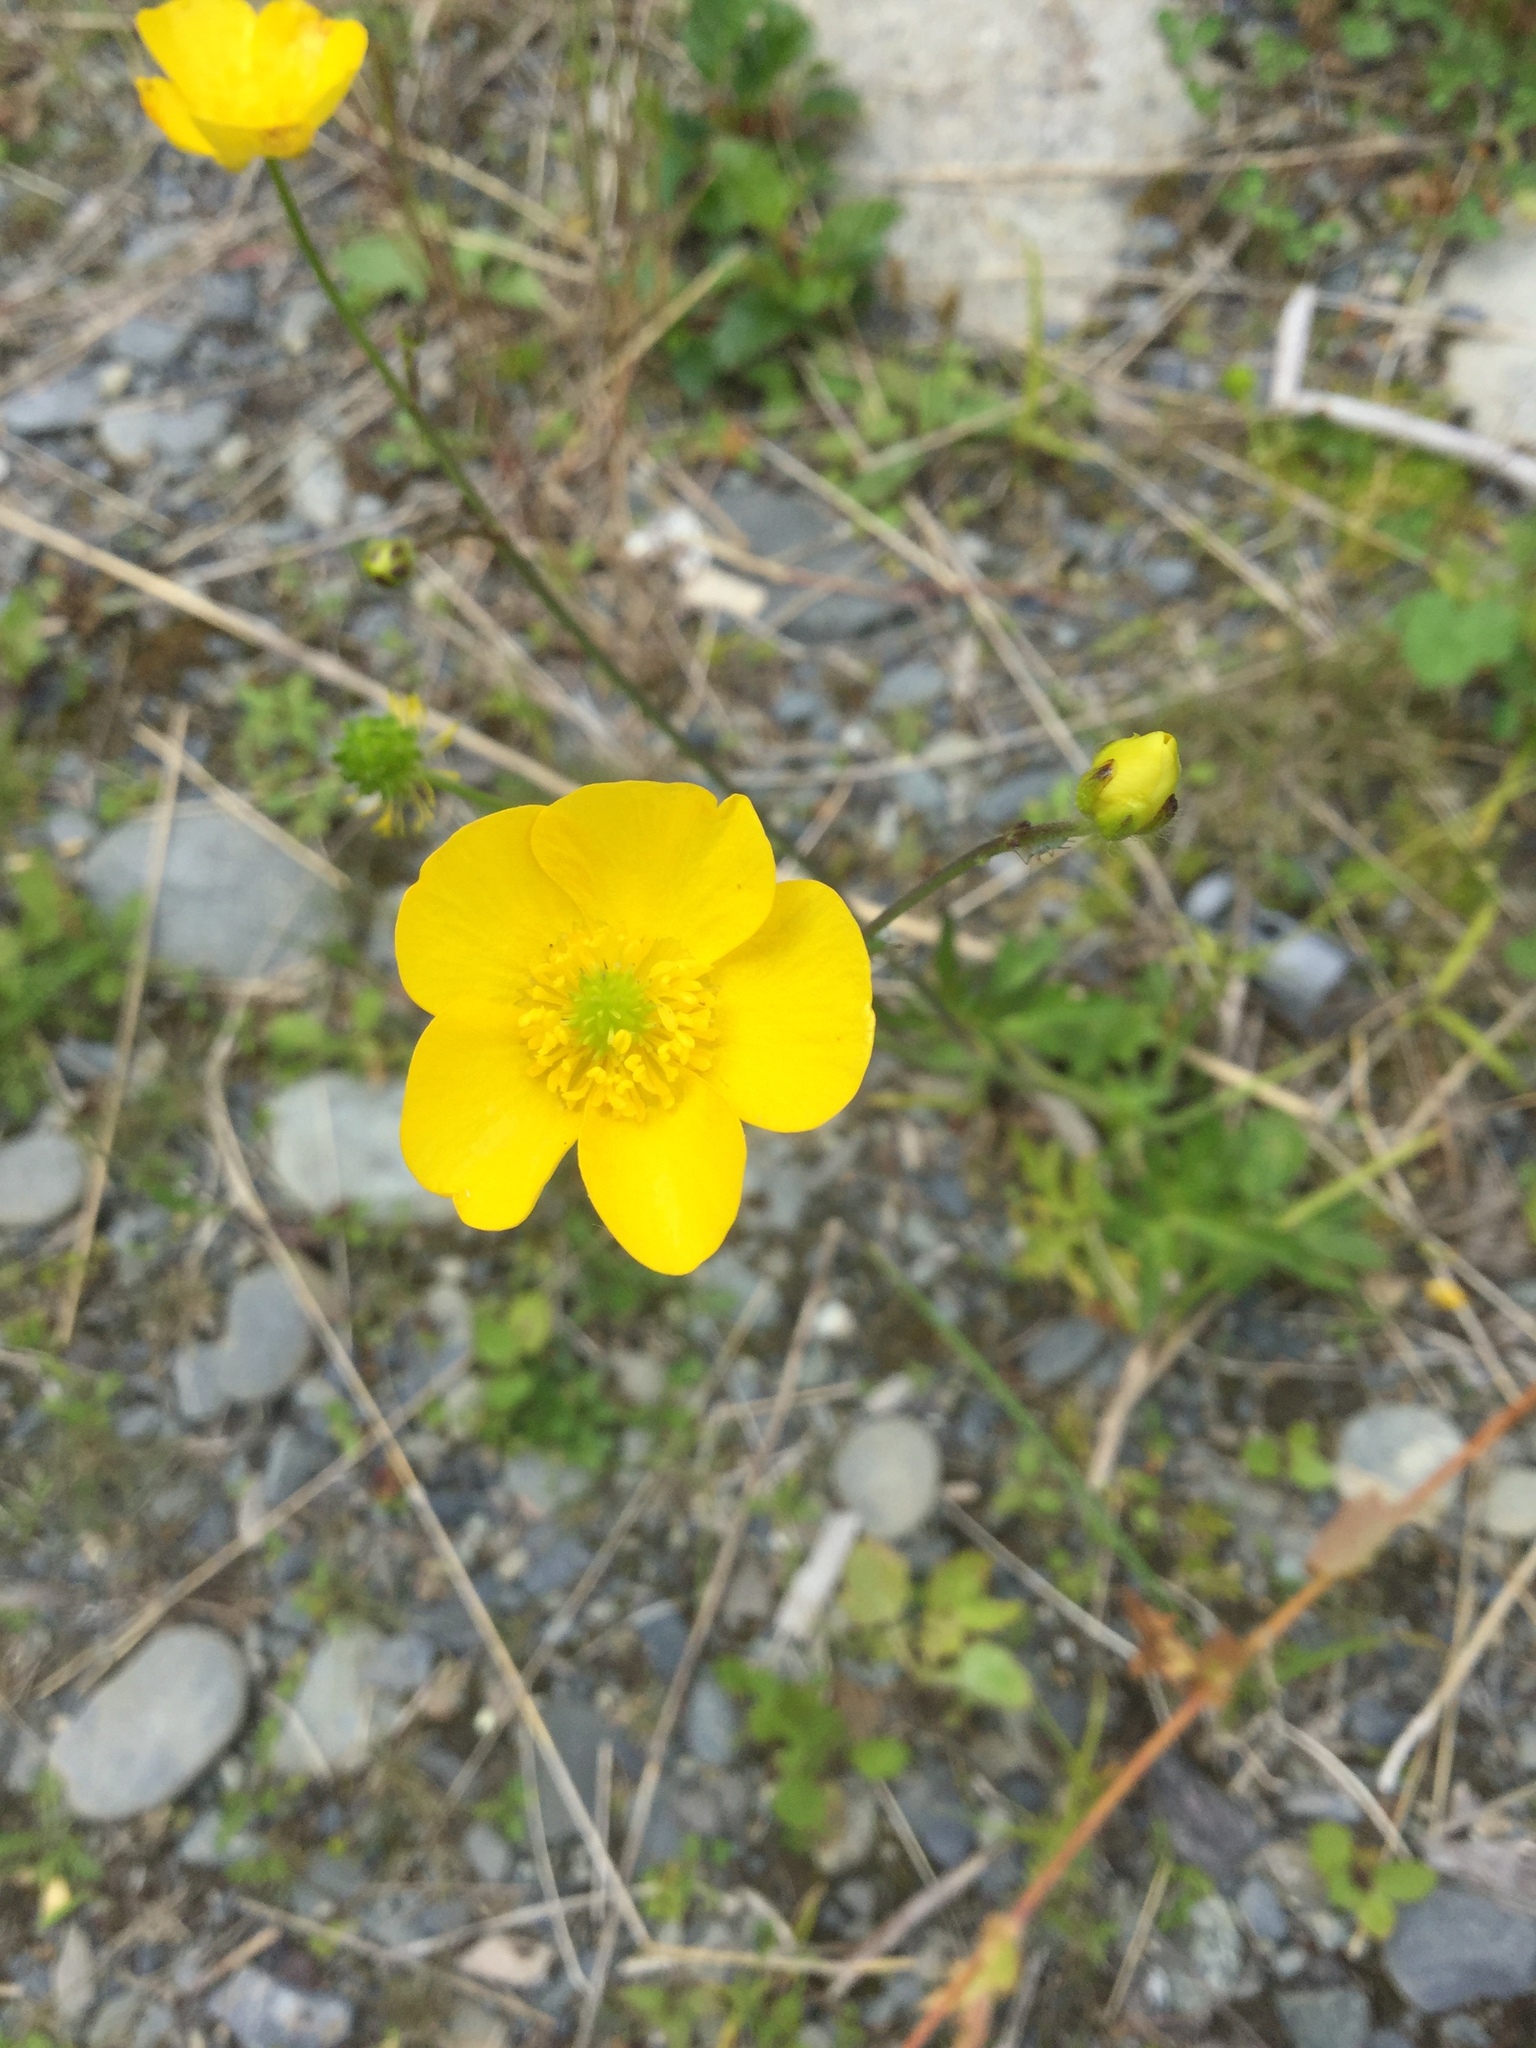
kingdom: Plantae
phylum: Tracheophyta
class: Magnoliopsida
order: Ranunculales
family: Ranunculaceae
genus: Ranunculus
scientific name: Ranunculus acris
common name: Meadow buttercup
